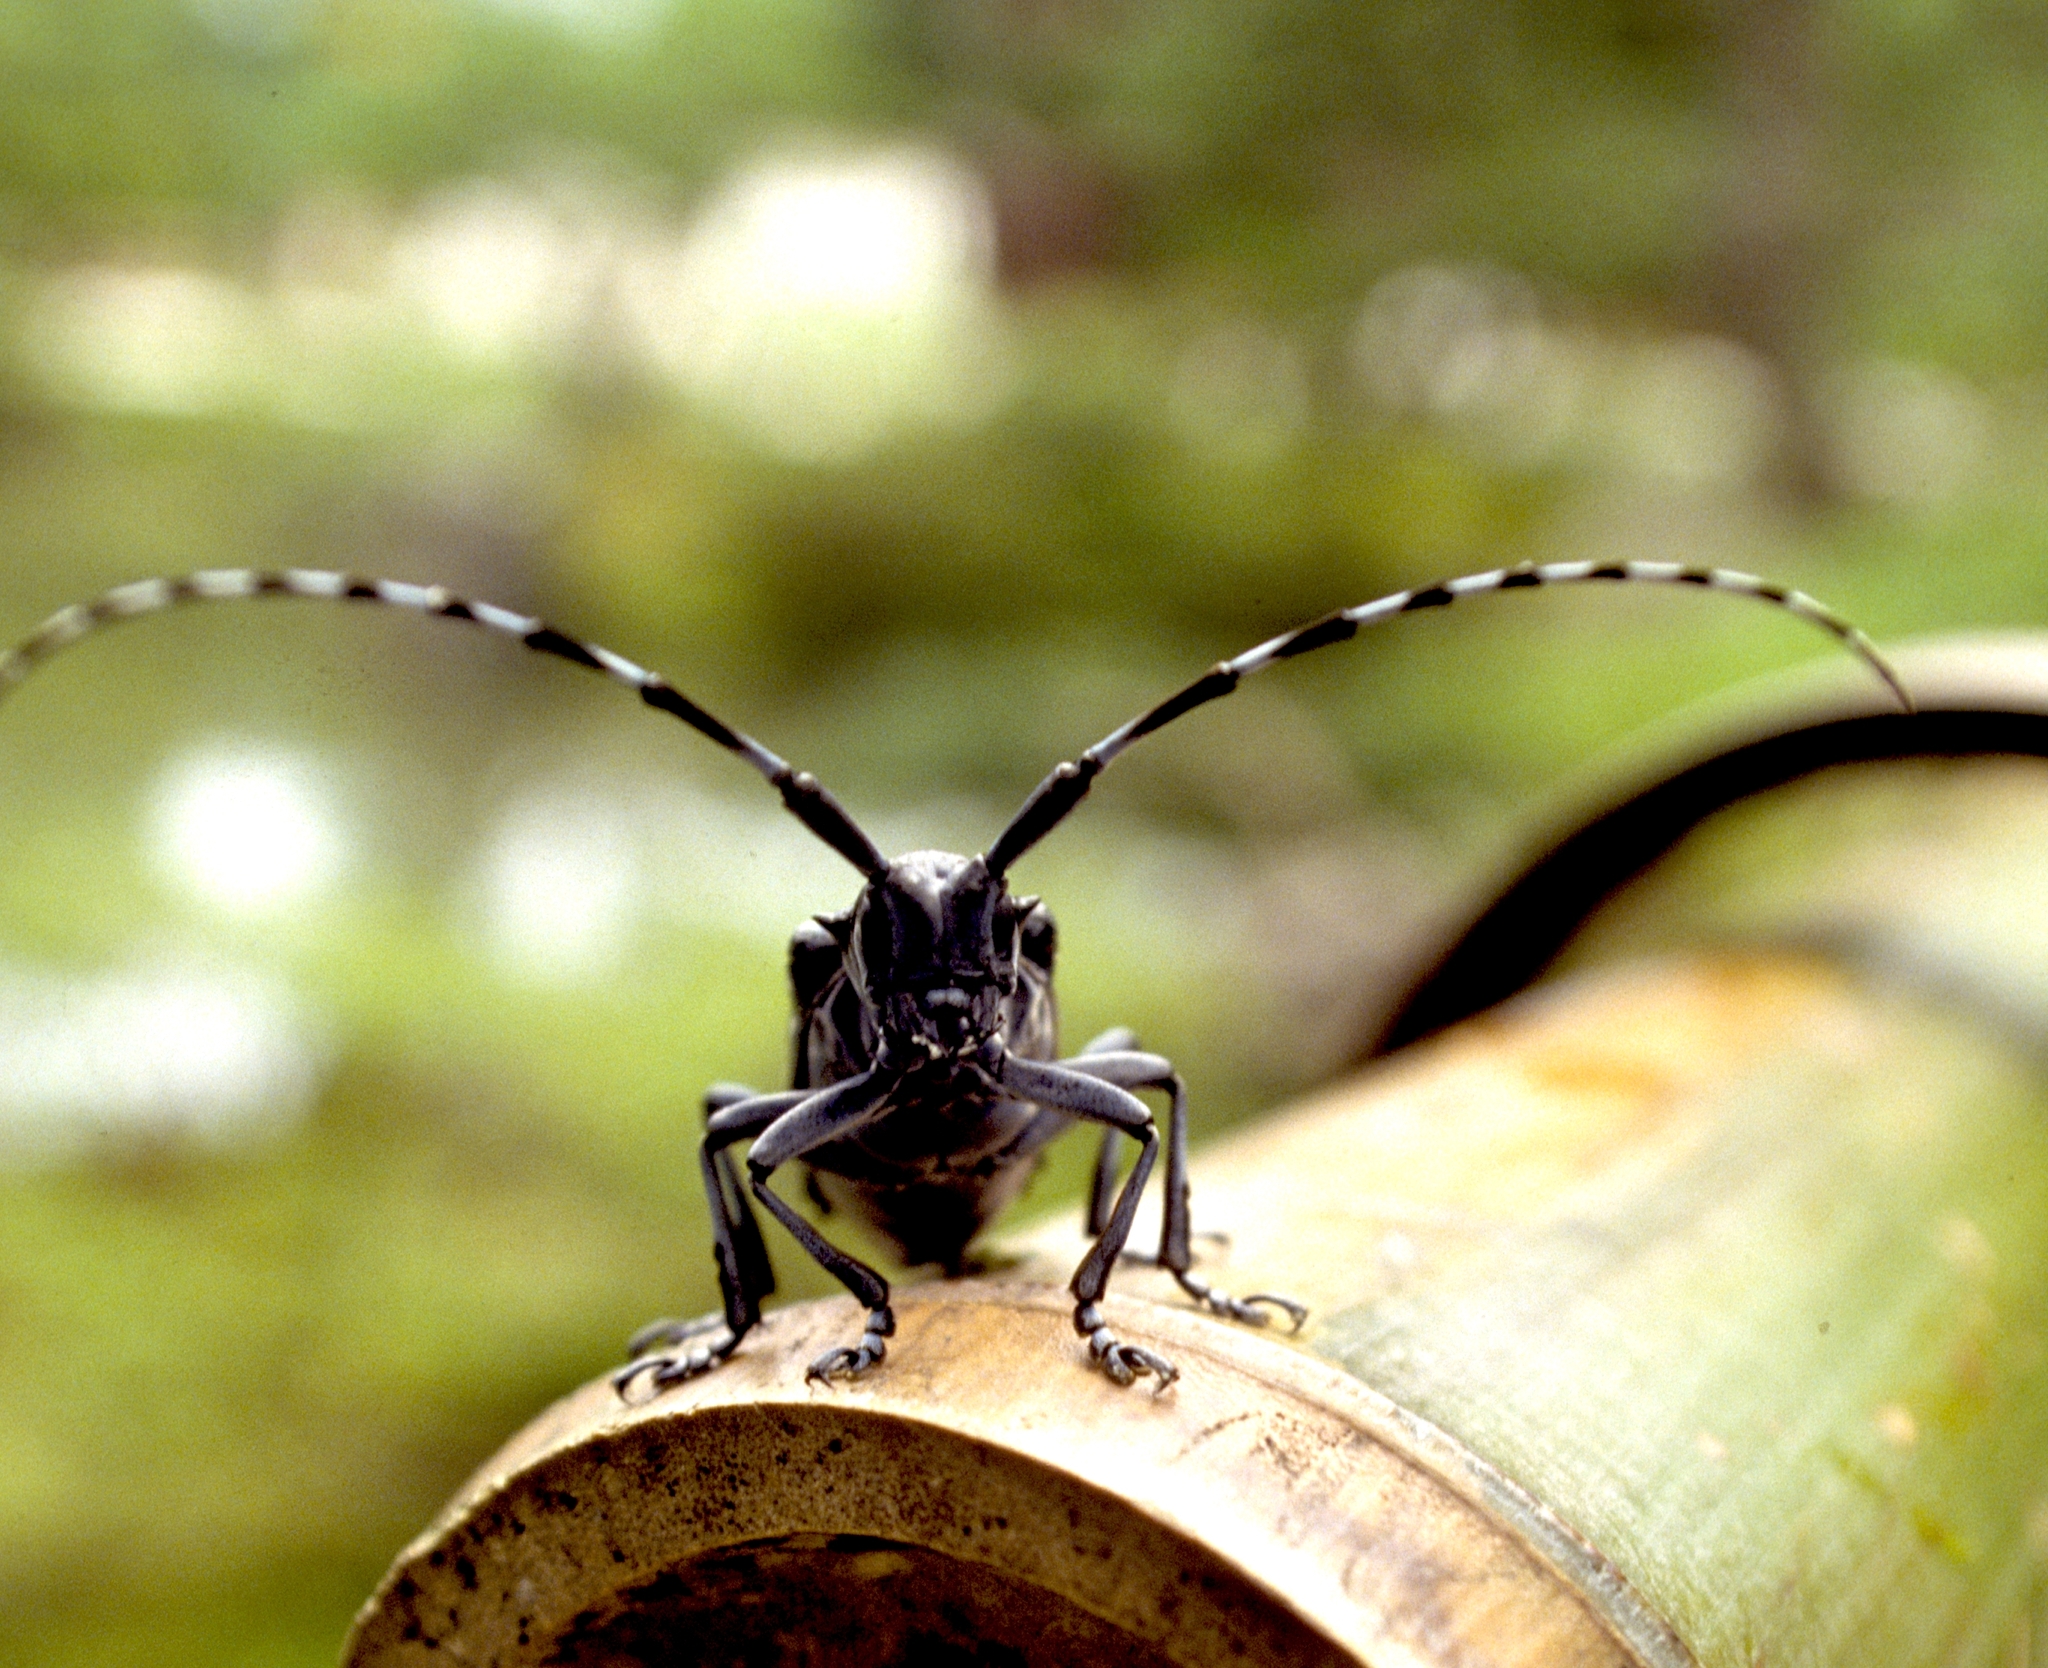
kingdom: Animalia
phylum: Arthropoda
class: Insecta
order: Coleoptera
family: Cerambycidae
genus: Anoplophora
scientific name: Anoplophora chinensis
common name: Citrus longhorned beetle
